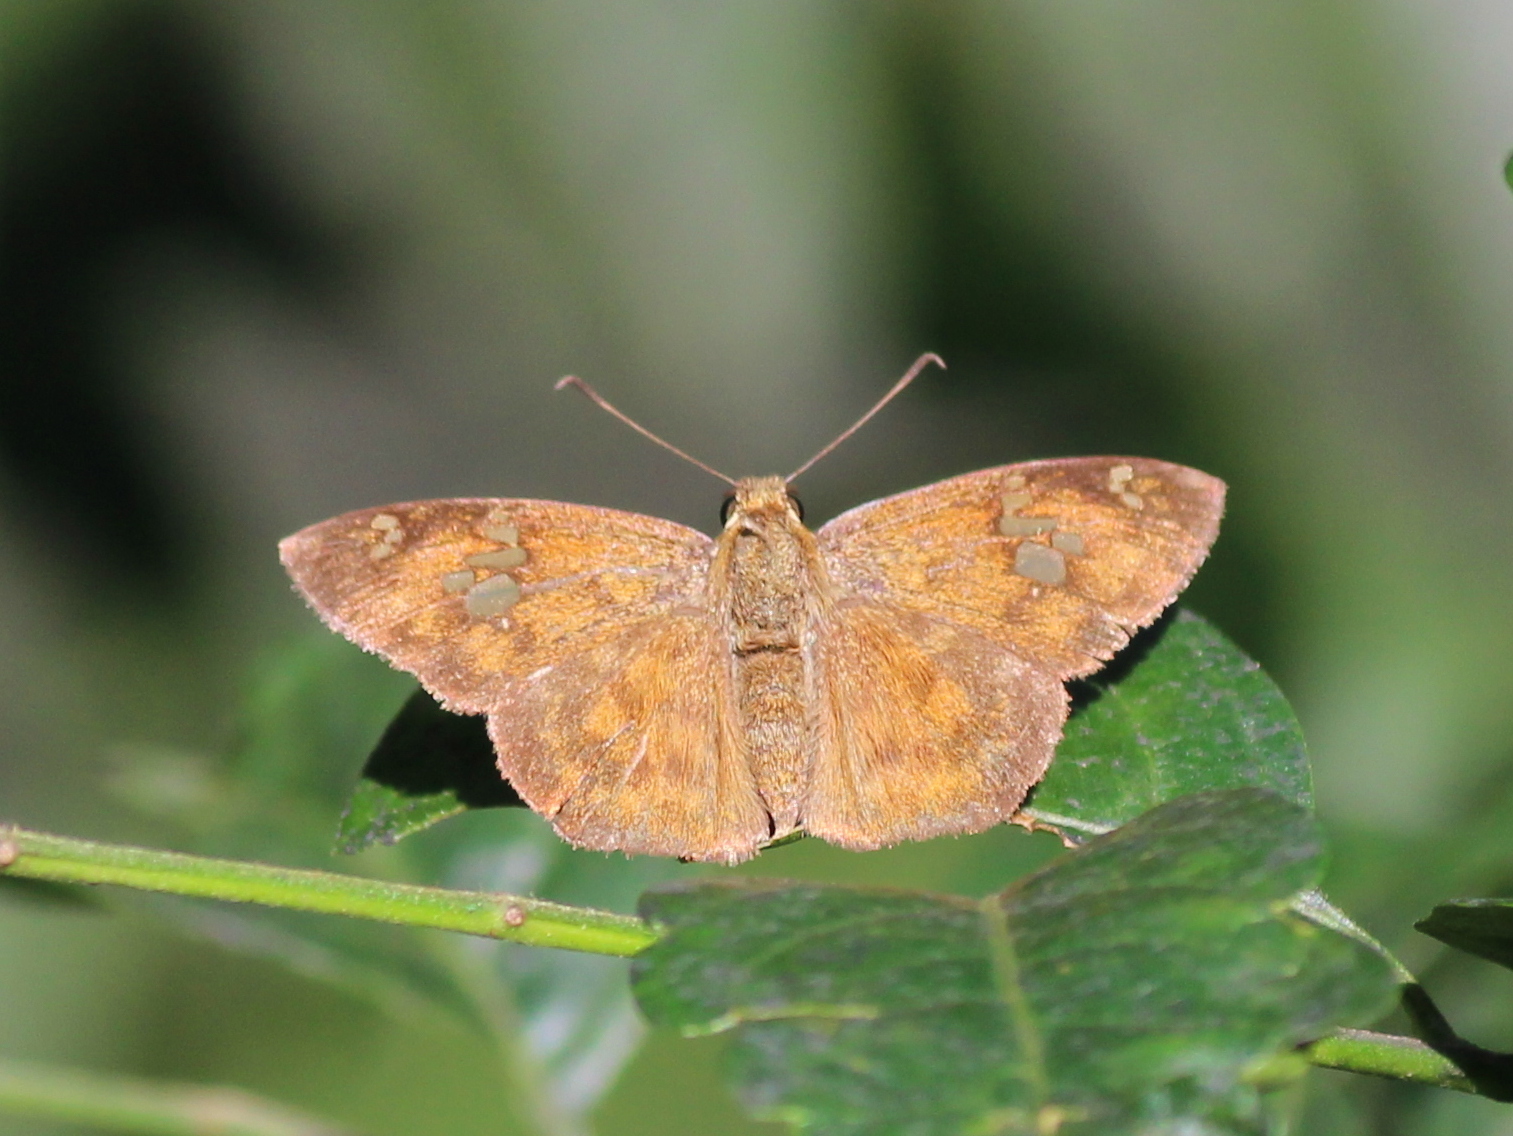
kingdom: Animalia
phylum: Arthropoda
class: Insecta
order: Lepidoptera
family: Hesperiidae
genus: Pseudocoladenia
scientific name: Pseudocoladenia dan
